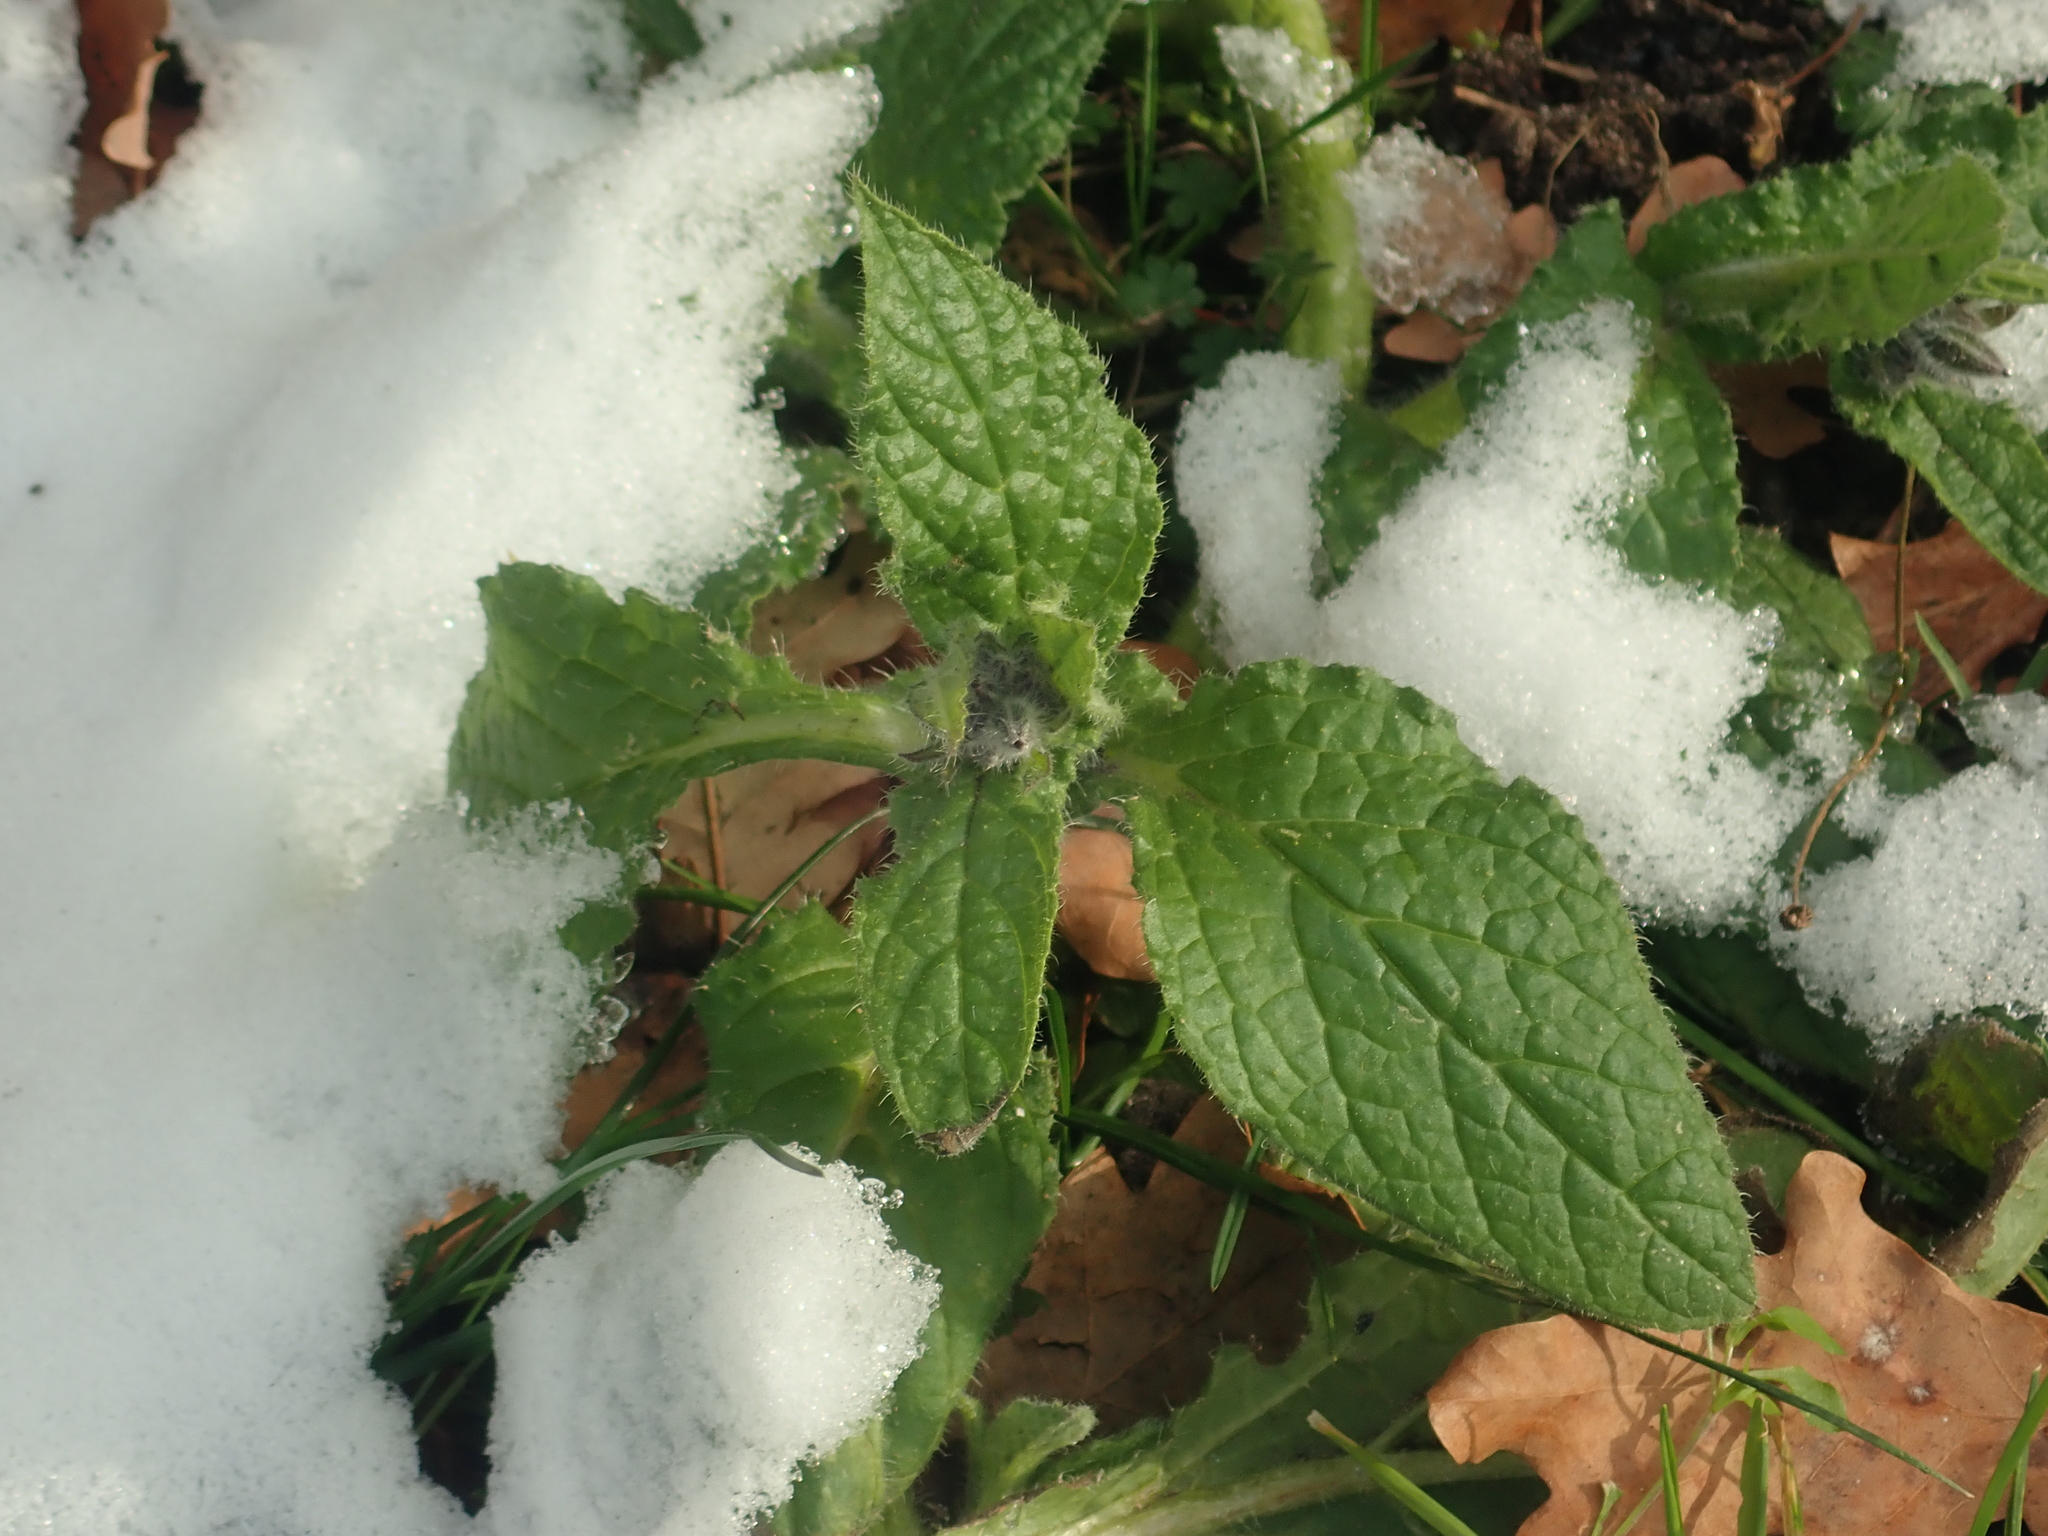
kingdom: Plantae
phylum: Tracheophyta
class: Magnoliopsida
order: Boraginales
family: Boraginaceae
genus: Borago
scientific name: Borago officinalis
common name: Borage
